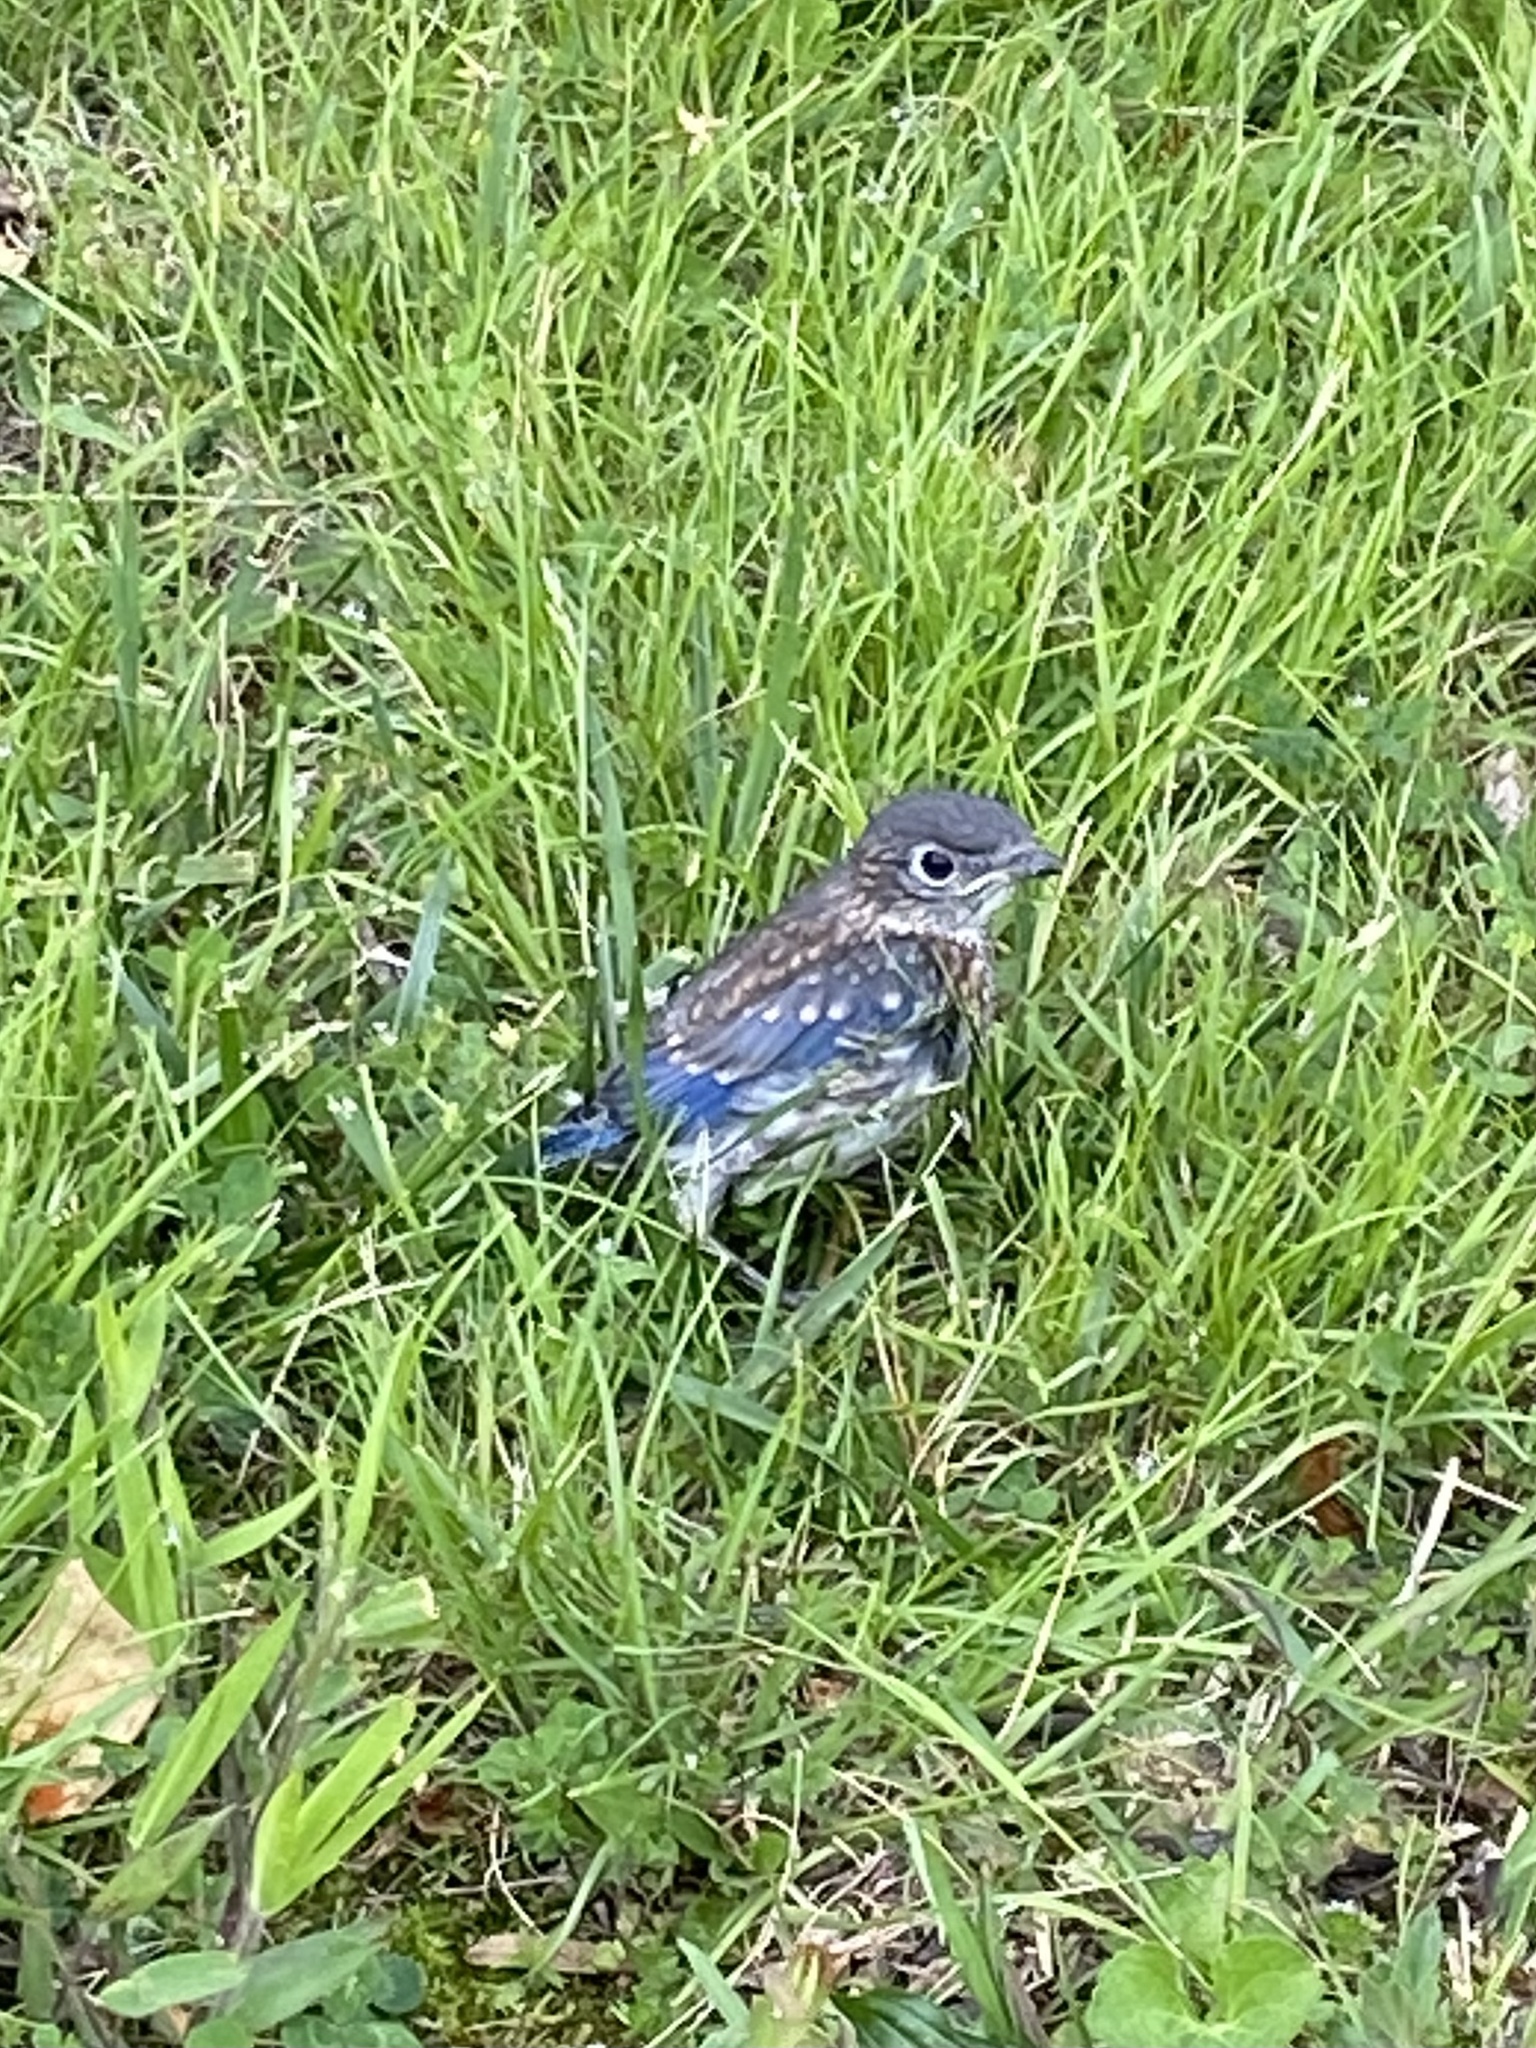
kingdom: Animalia
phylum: Chordata
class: Aves
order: Passeriformes
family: Turdidae
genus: Sialia
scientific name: Sialia sialis
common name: Eastern bluebird
